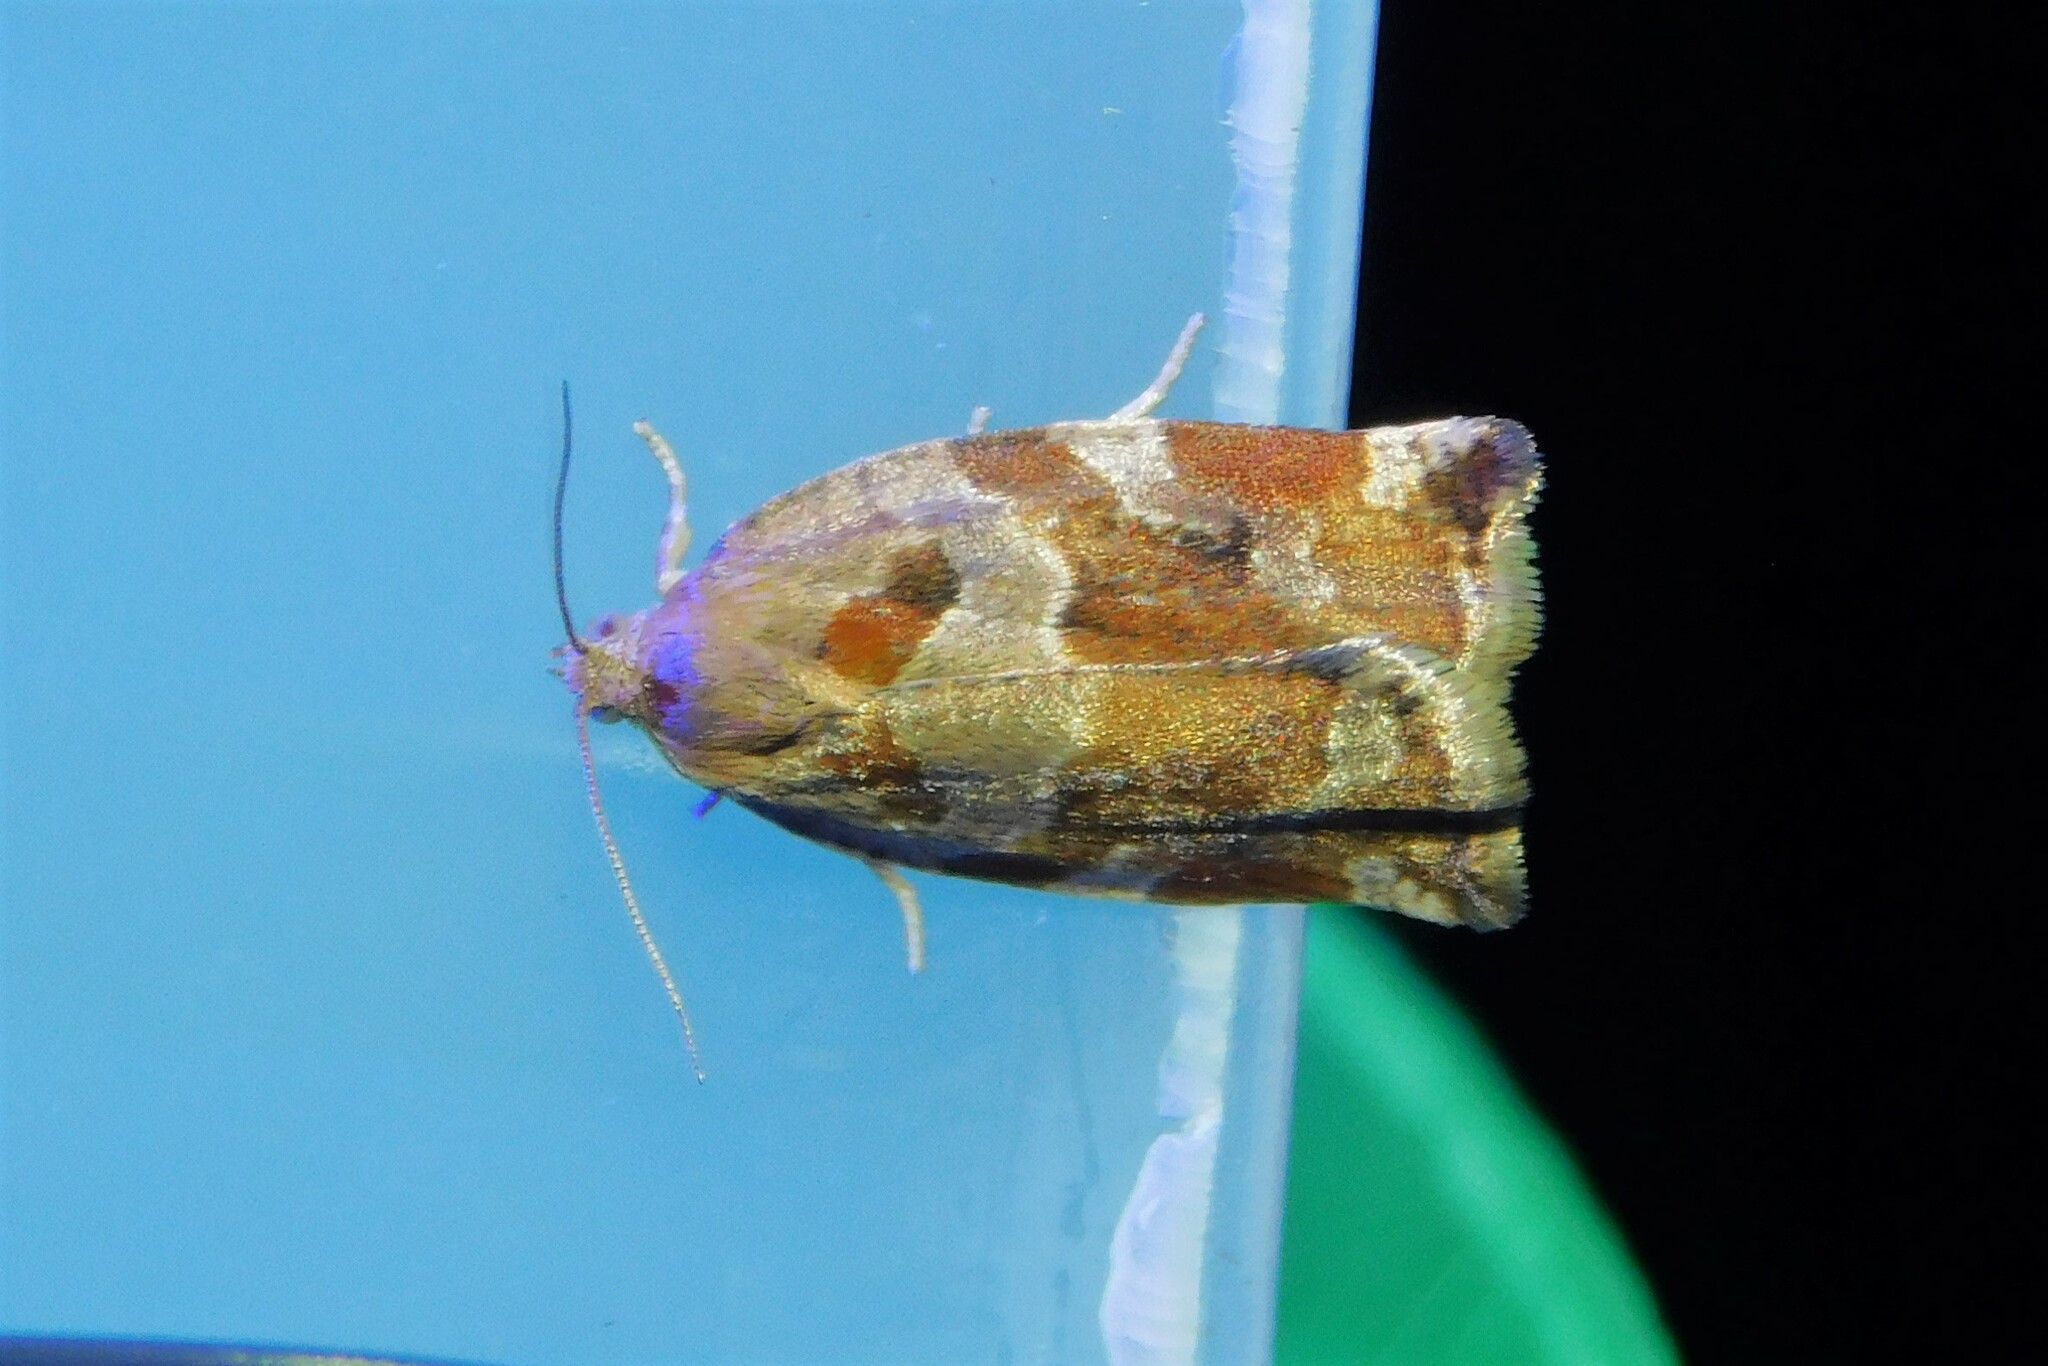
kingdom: Animalia
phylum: Arthropoda
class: Insecta
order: Lepidoptera
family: Tortricidae
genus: Archips
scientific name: Archips xylosteana
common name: Variegated golden tortrix
